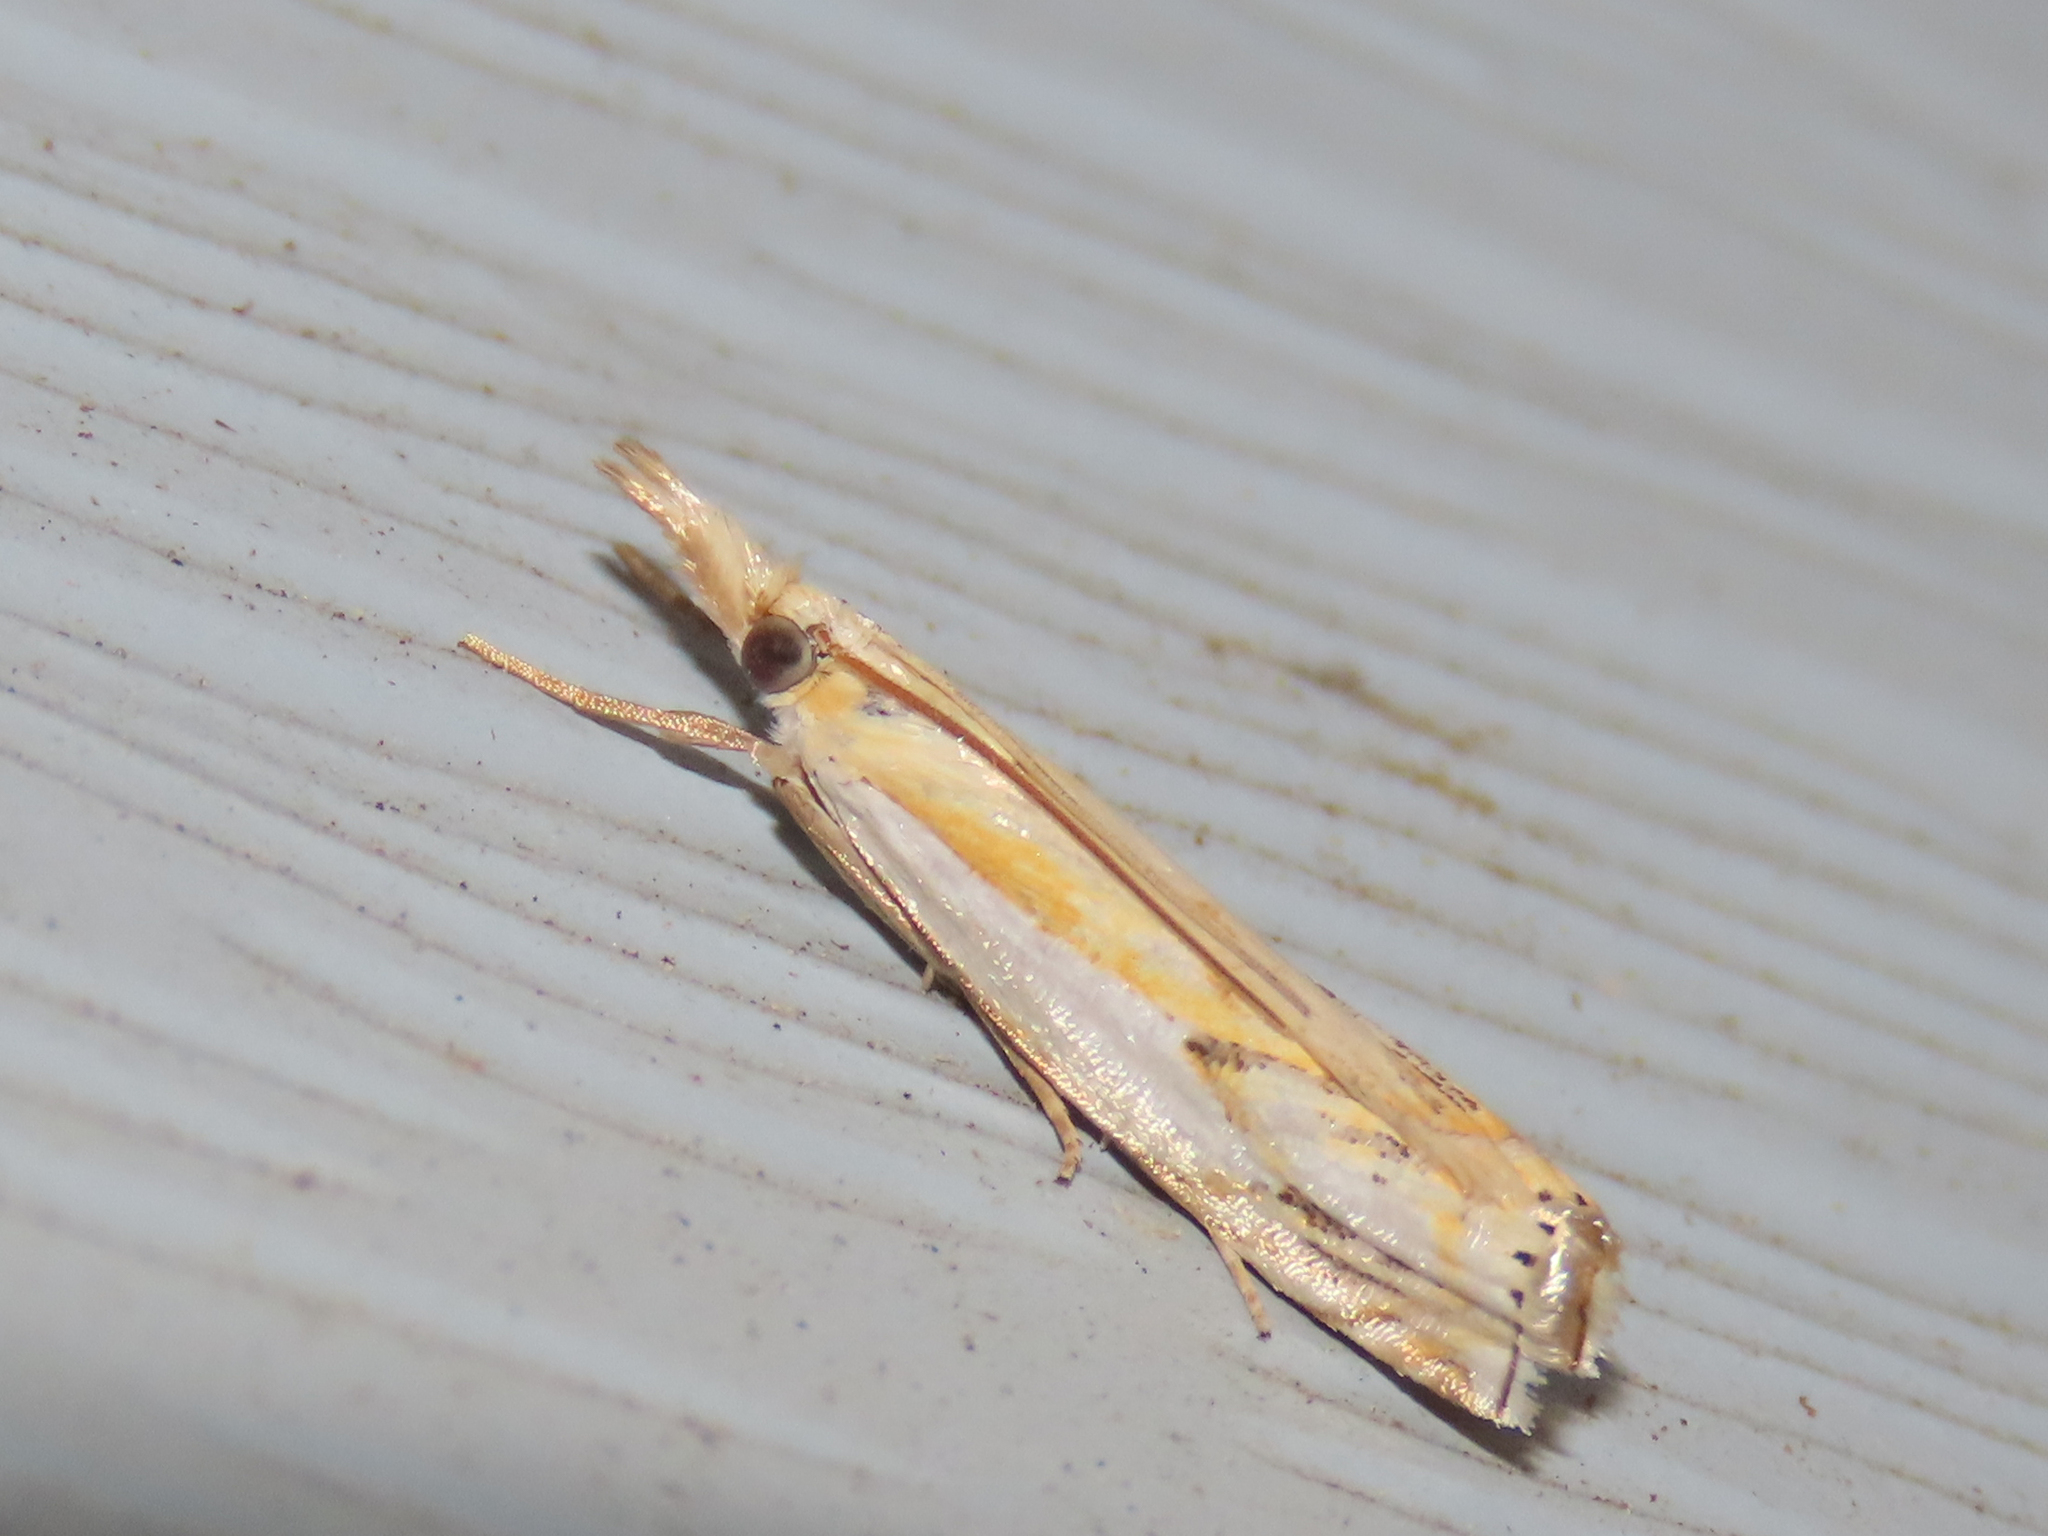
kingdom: Animalia
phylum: Arthropoda
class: Insecta
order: Lepidoptera
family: Crambidae
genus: Crambus
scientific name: Crambus agitatellus
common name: Double-banded grass-veneer
